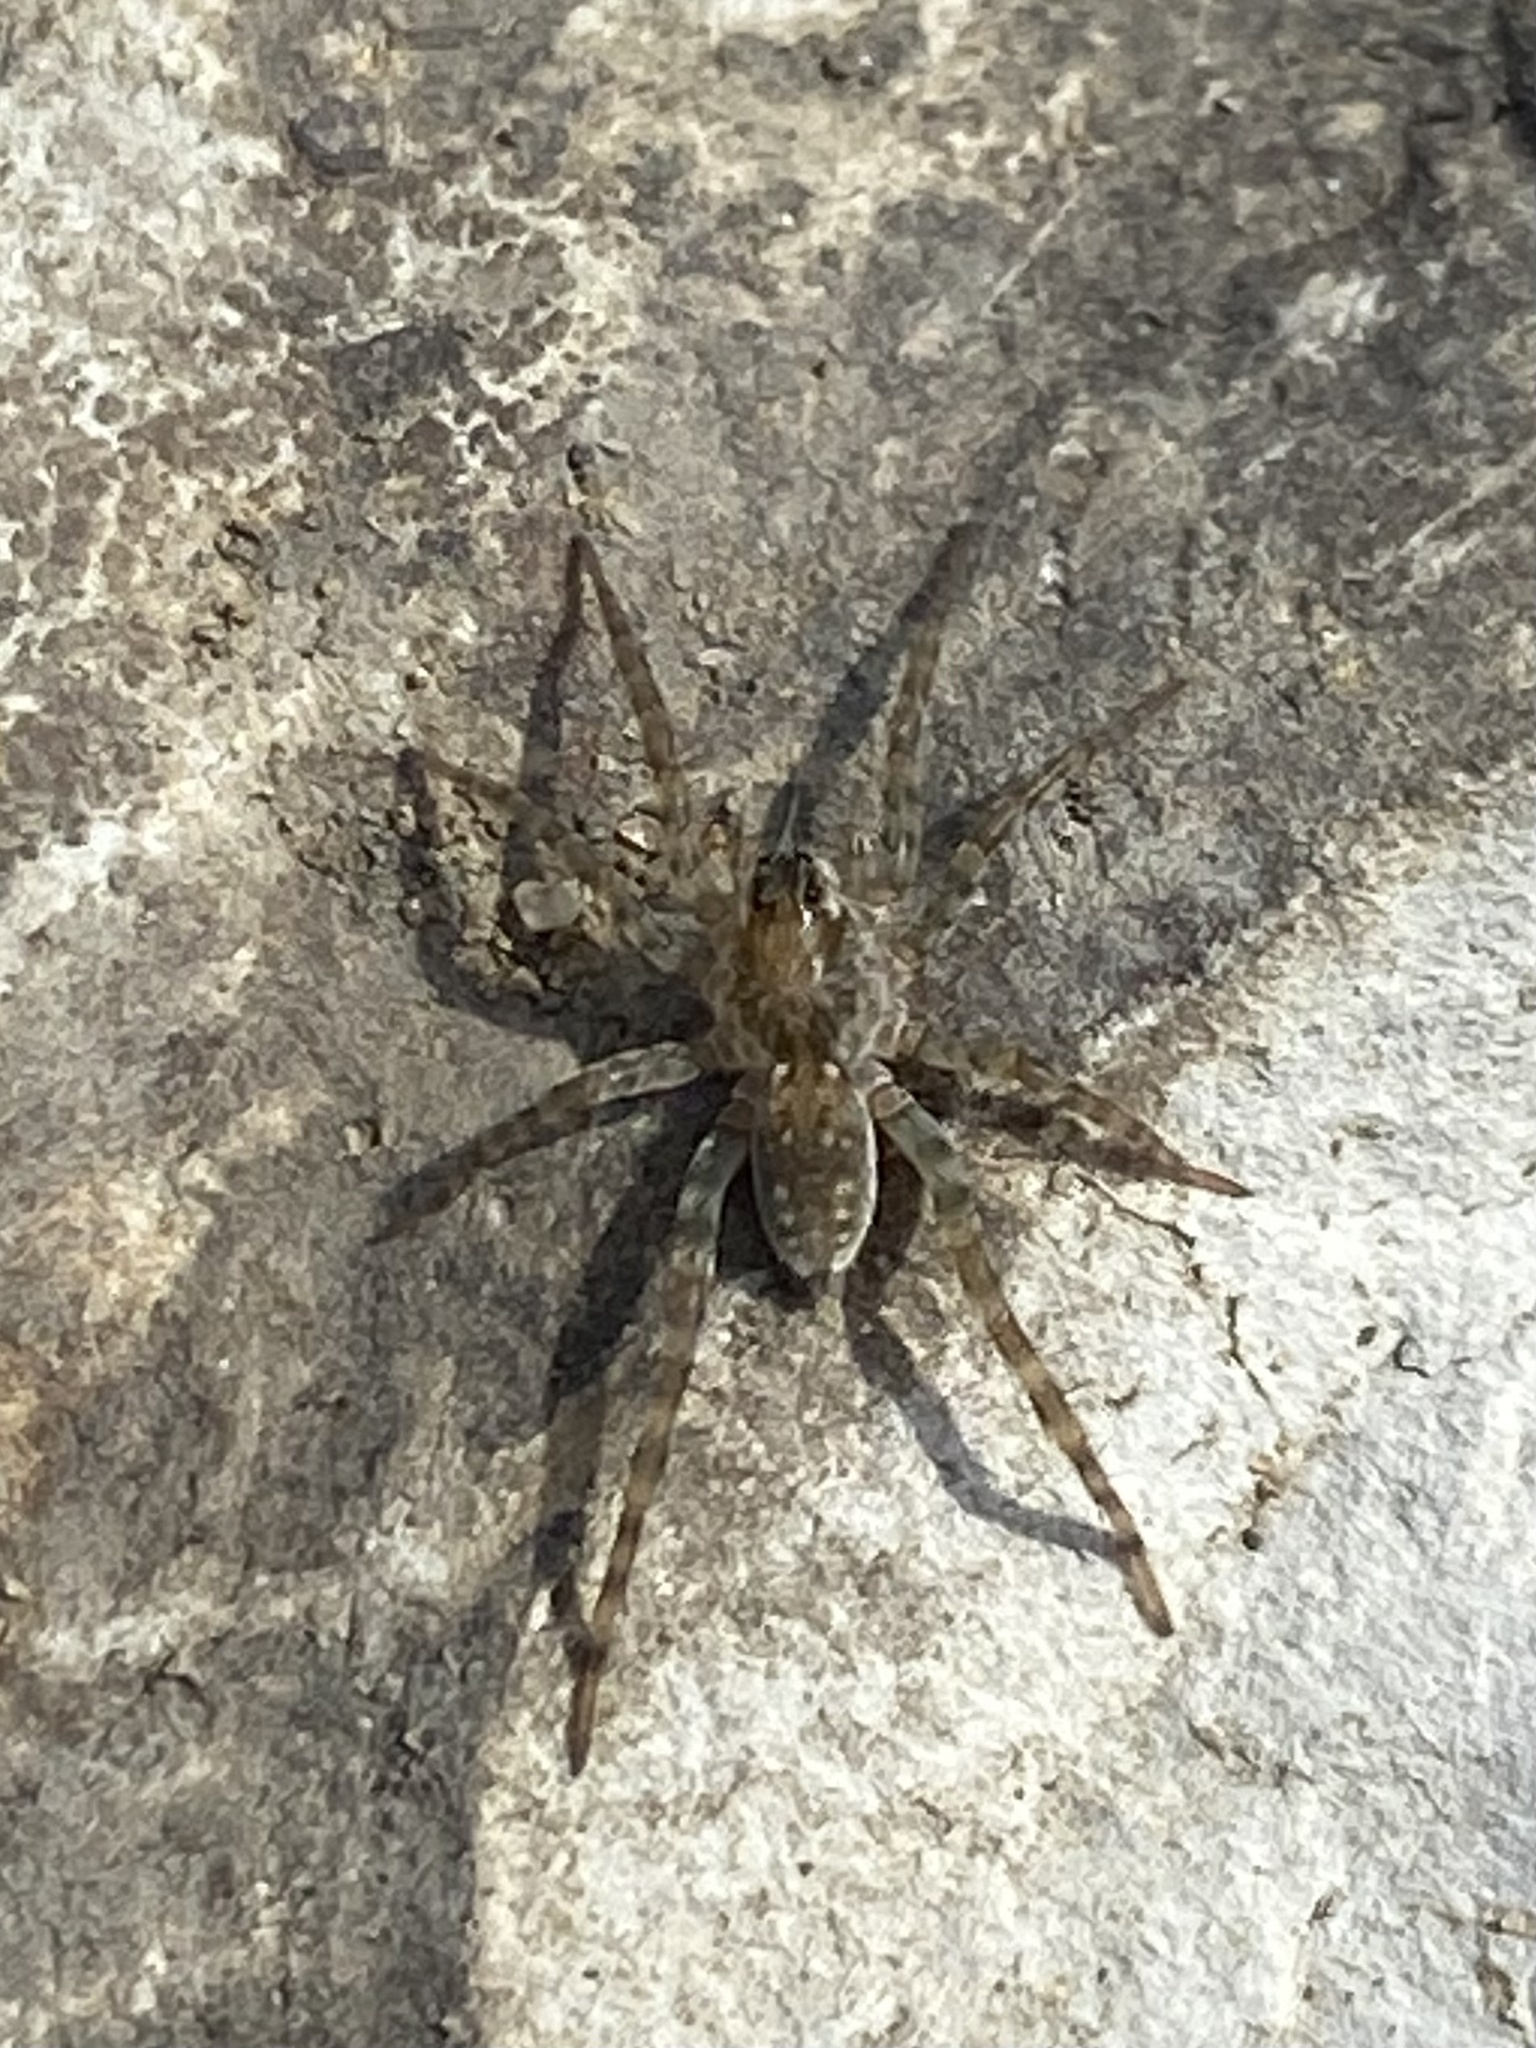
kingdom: Animalia
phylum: Arthropoda
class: Arachnida
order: Araneae
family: Lycosidae
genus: Arctosa
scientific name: Arctosa littoralis
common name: Wolf spiders
